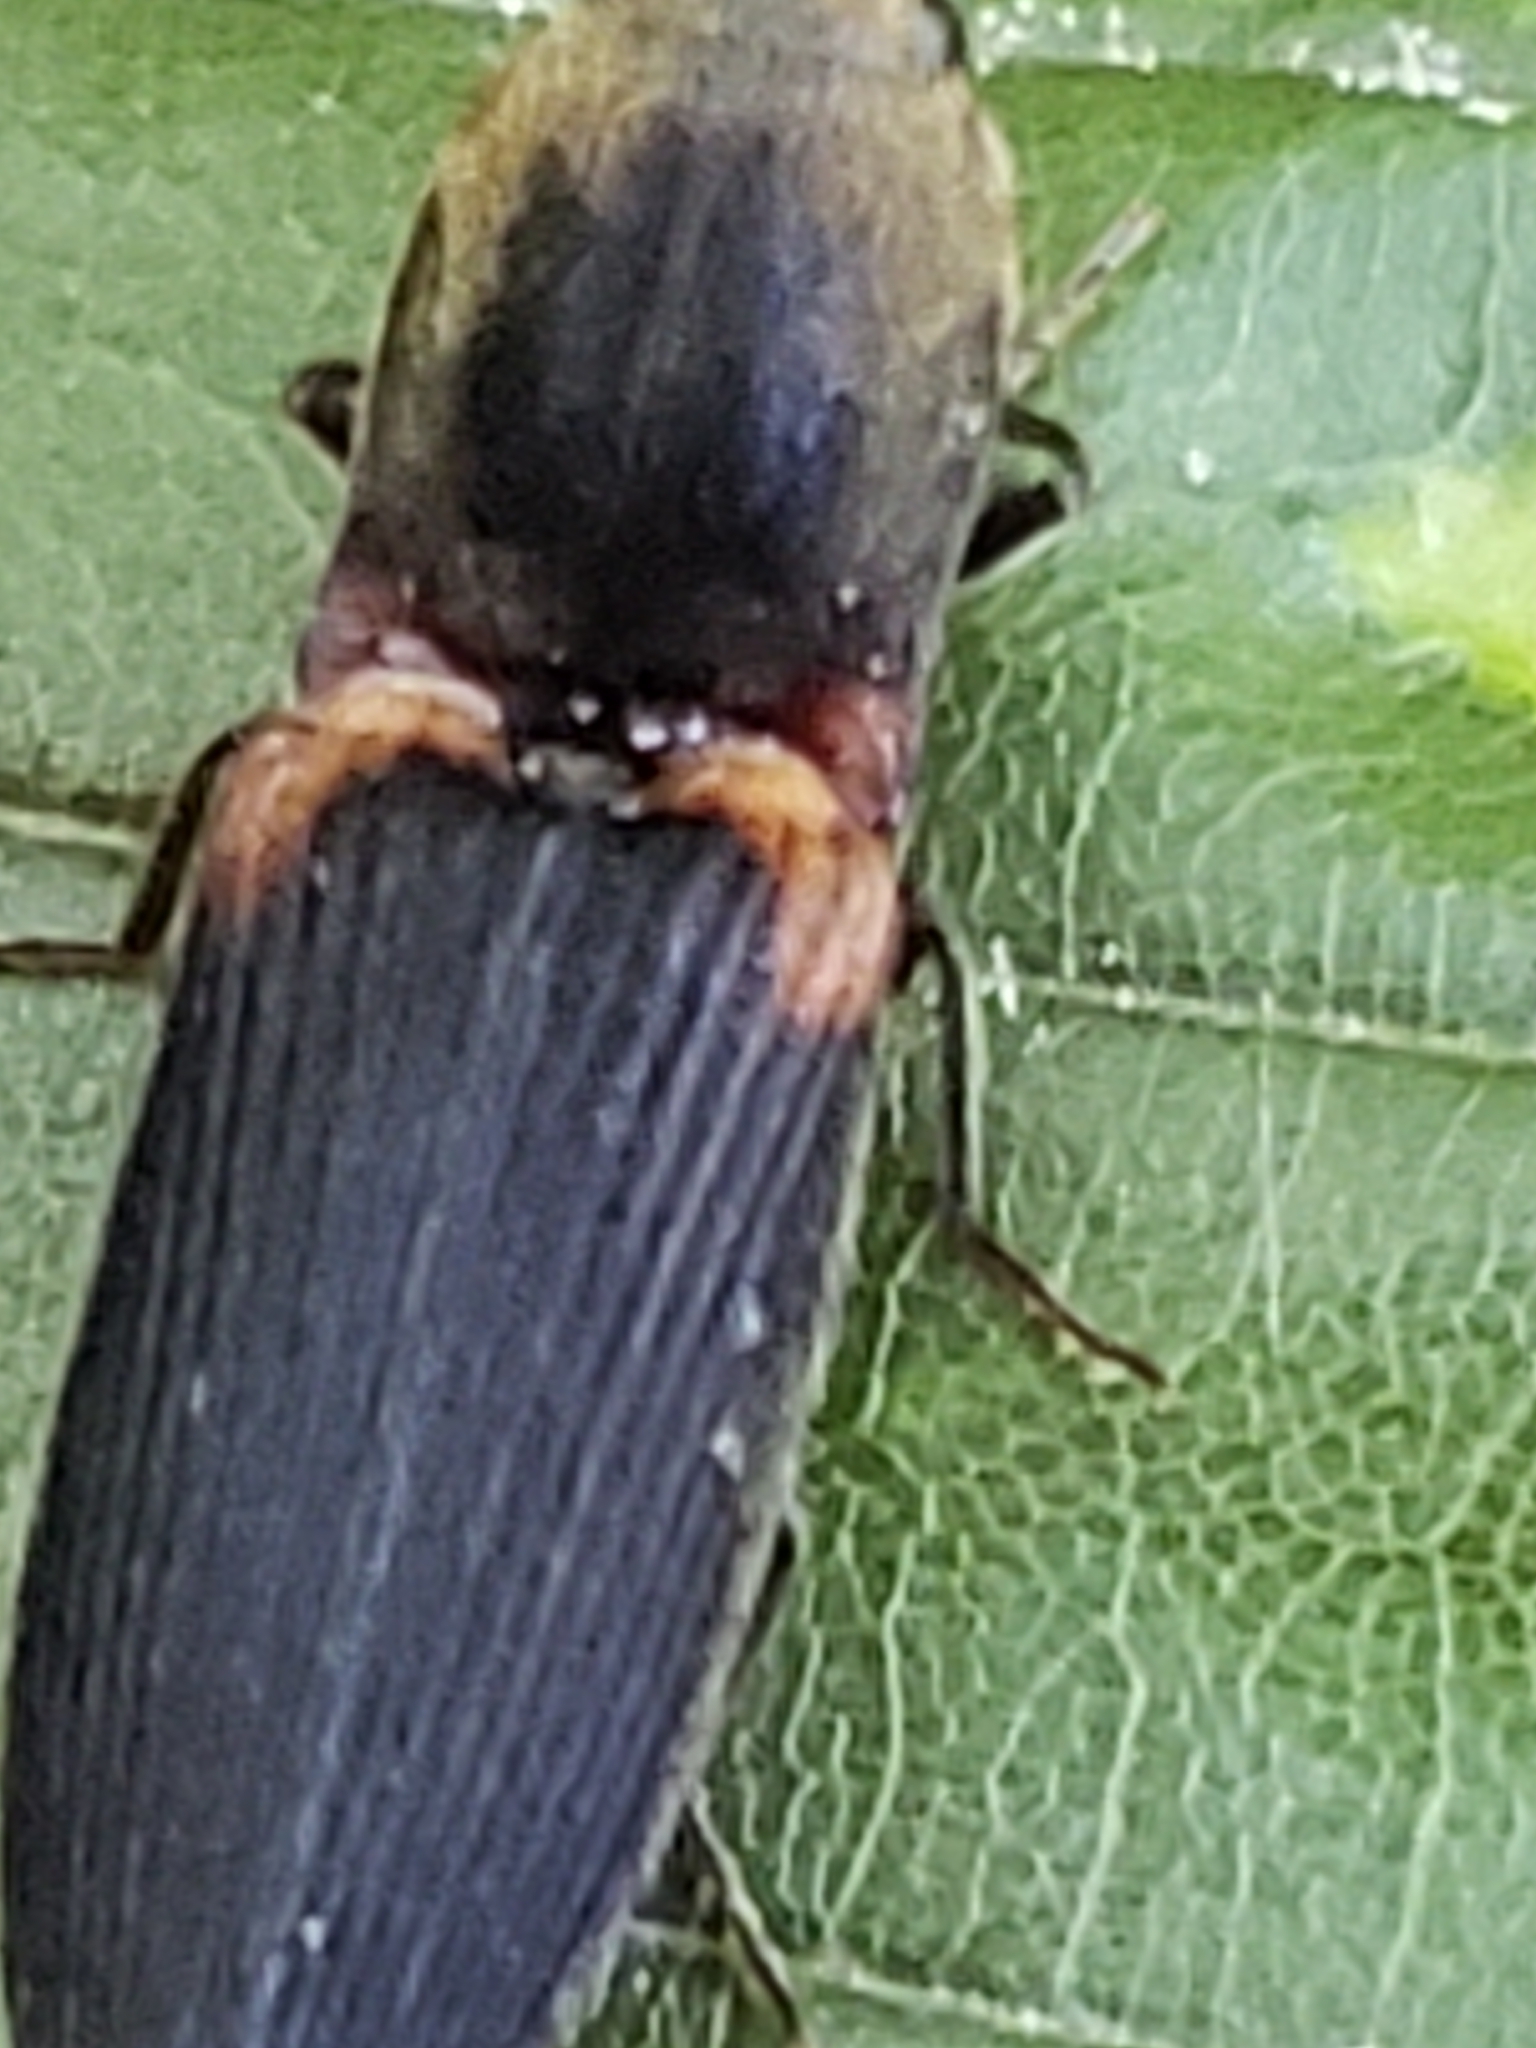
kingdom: Animalia
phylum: Arthropoda
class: Insecta
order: Coleoptera
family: Elateridae
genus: Athous
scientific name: Athous scapularis
